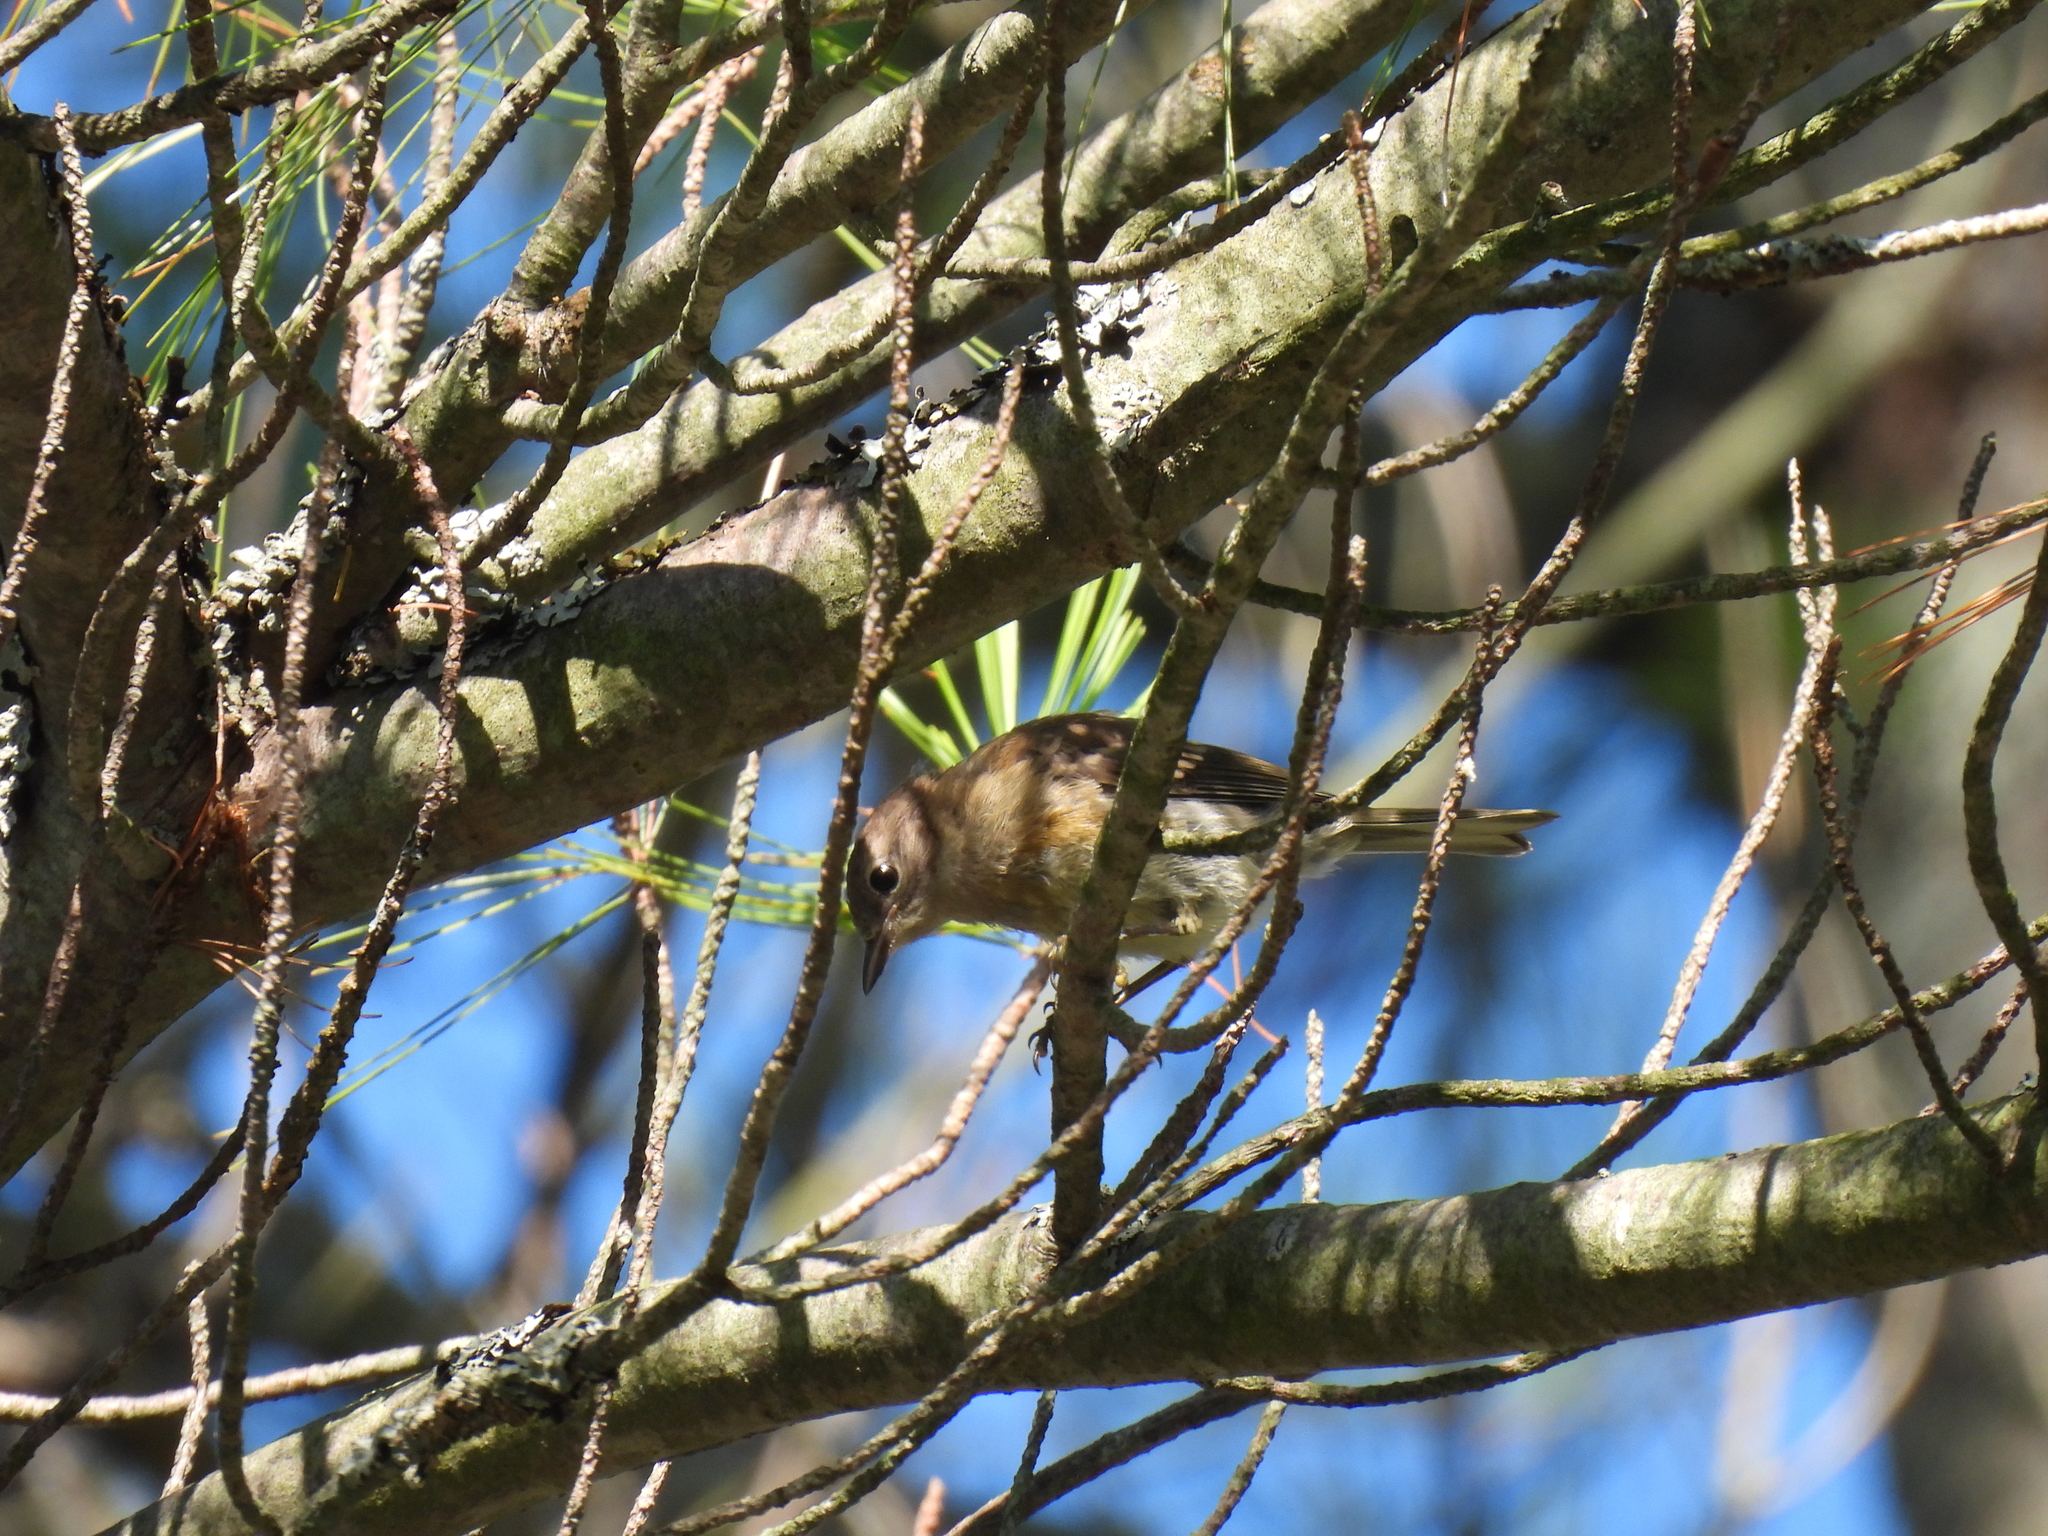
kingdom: Animalia
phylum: Chordata
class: Aves
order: Passeriformes
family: Parulidae
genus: Setophaga
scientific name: Setophaga coronata
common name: Myrtle warbler
